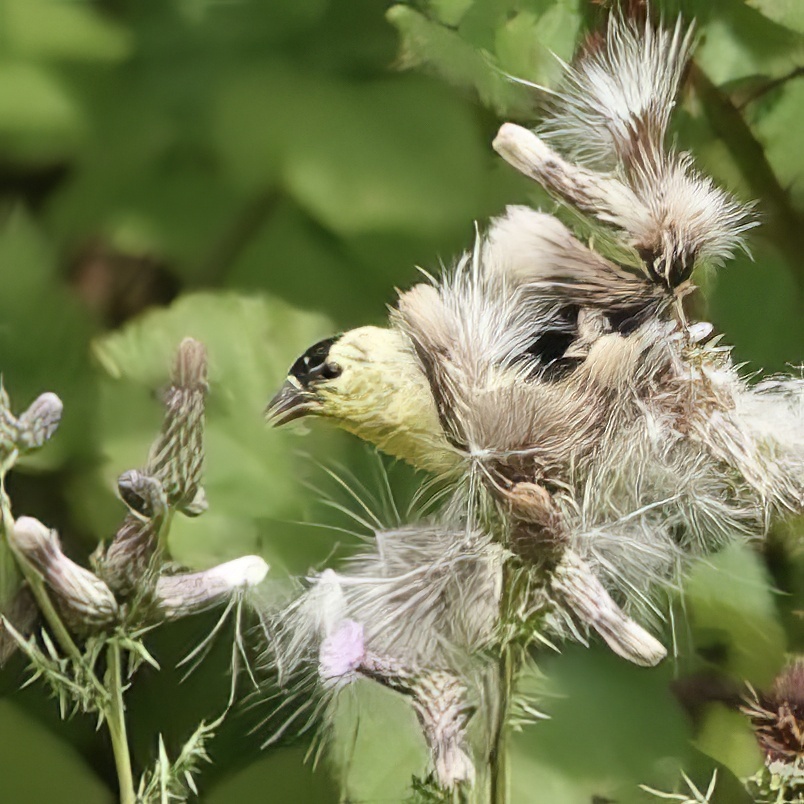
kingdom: Animalia
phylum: Chordata
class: Aves
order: Passeriformes
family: Fringillidae
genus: Spinus
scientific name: Spinus tristis
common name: American goldfinch
